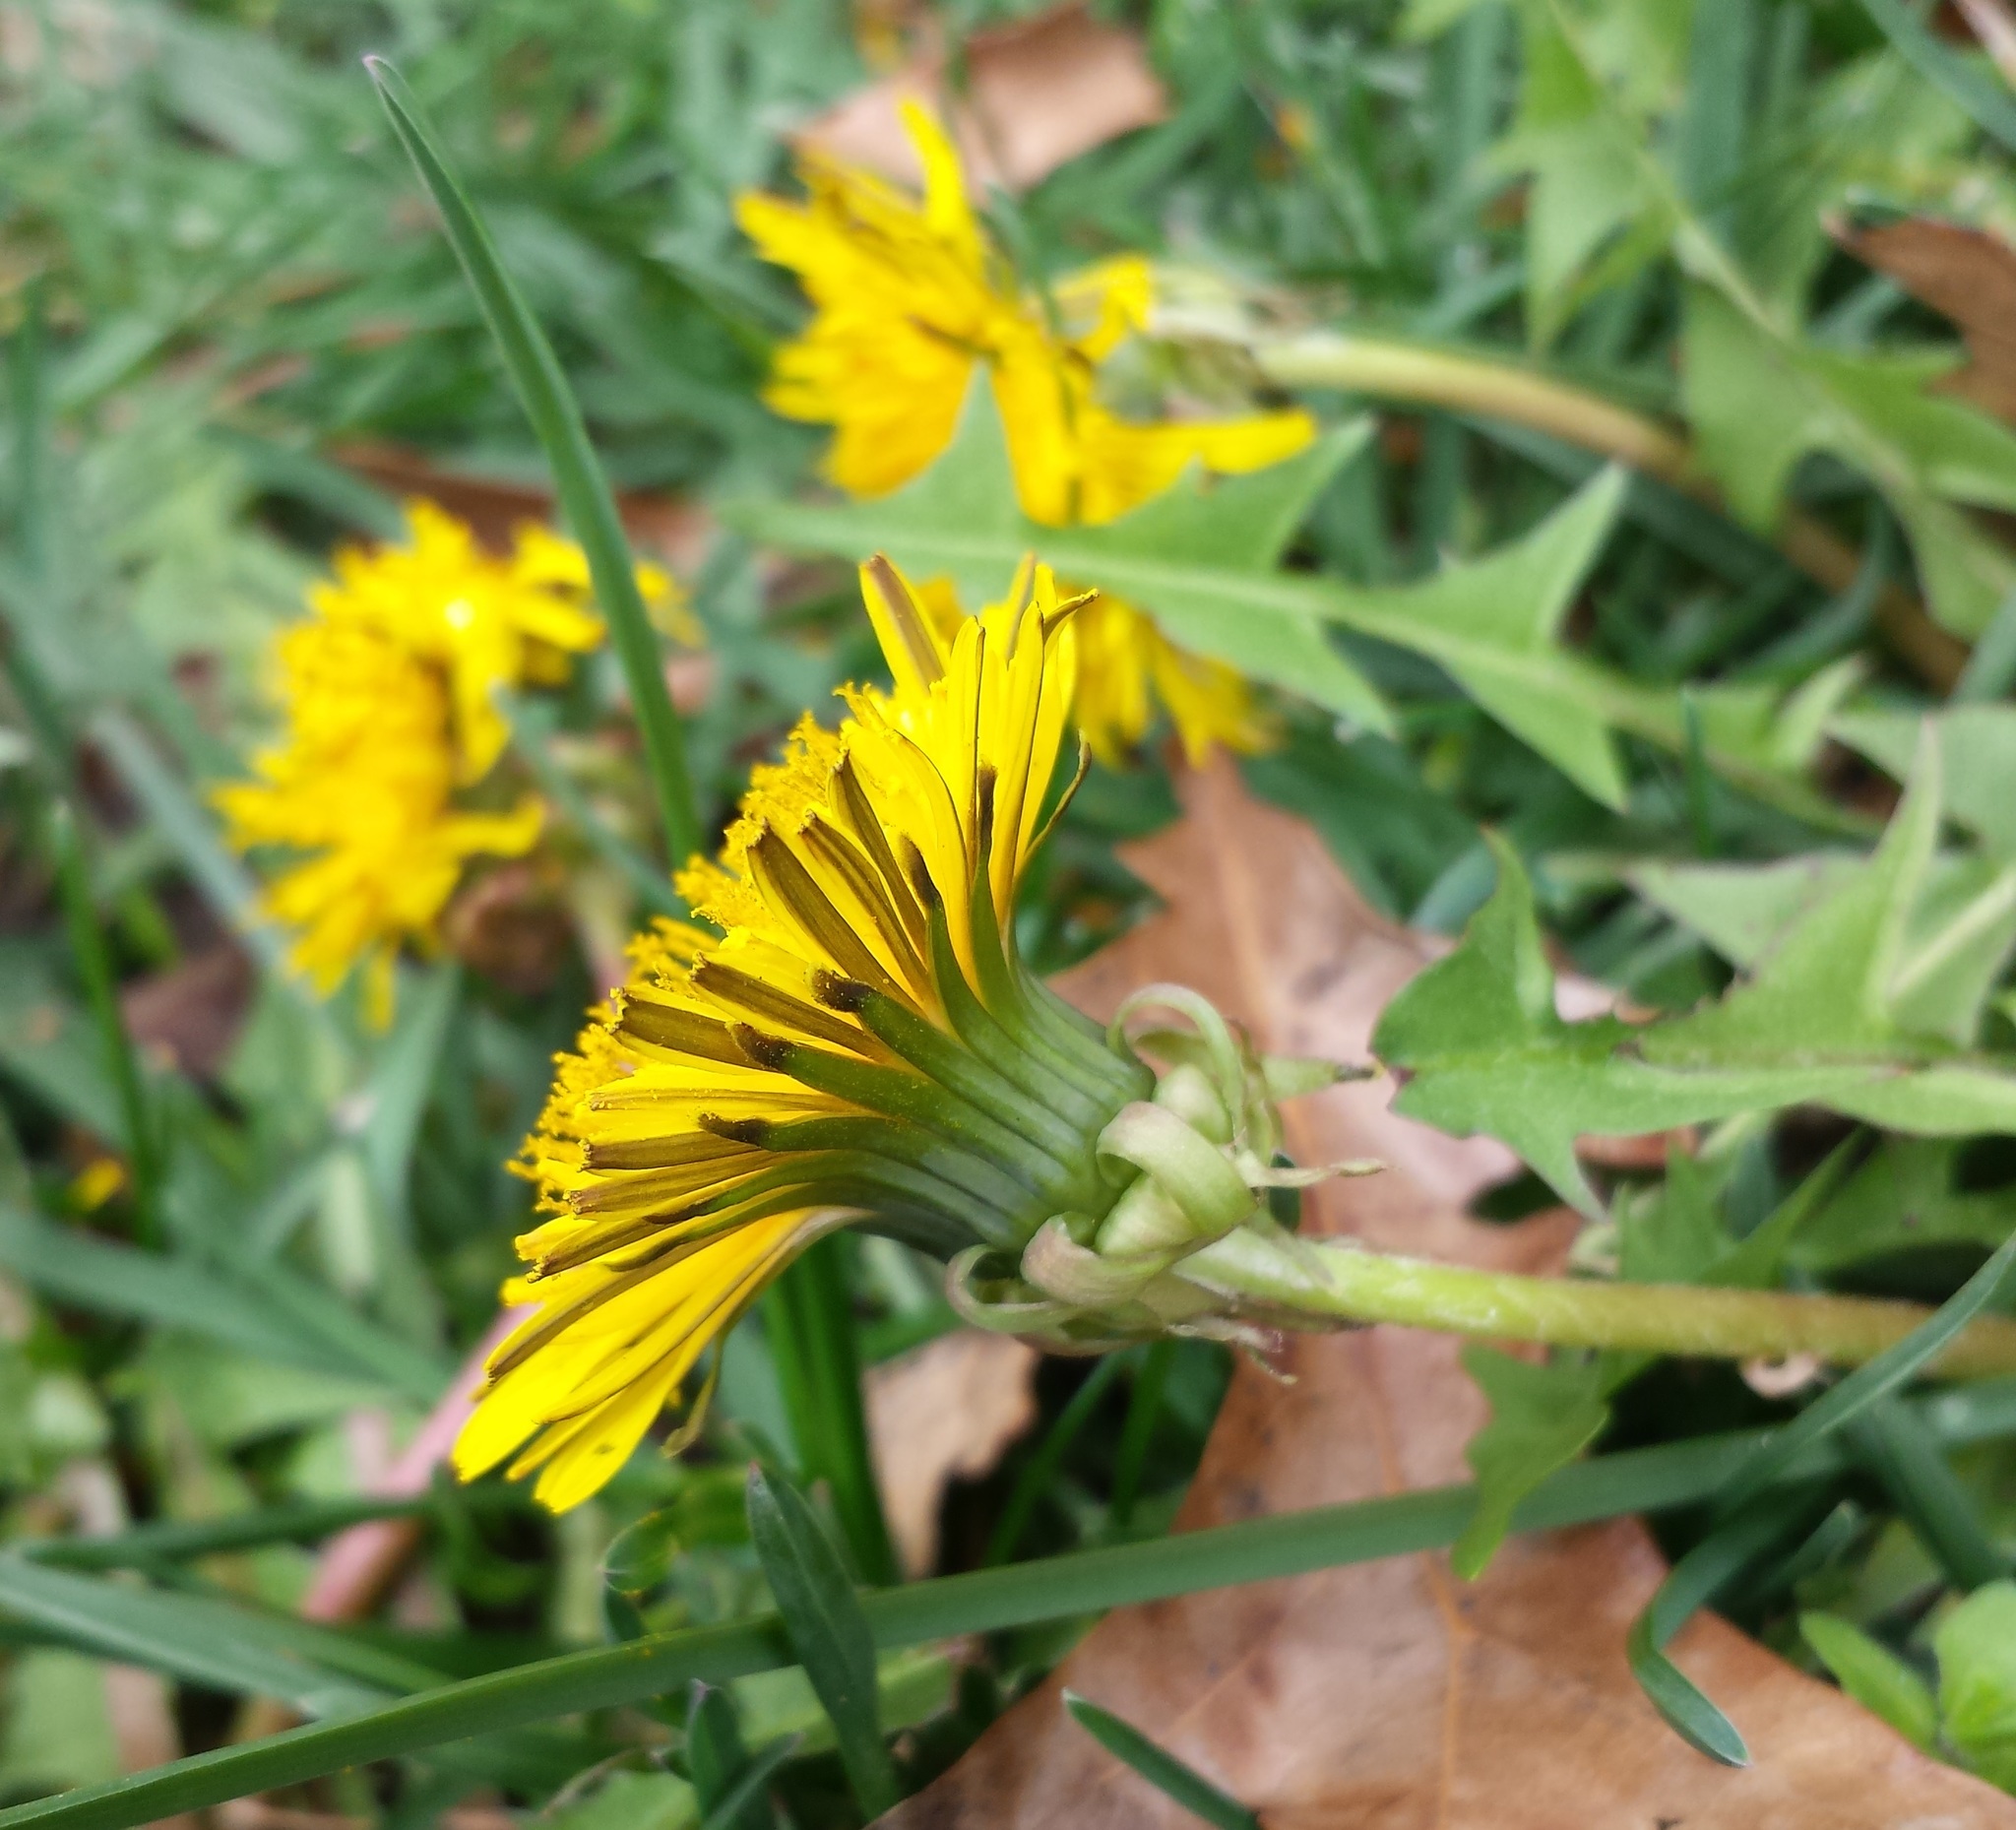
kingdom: Plantae
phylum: Tracheophyta
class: Magnoliopsida
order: Asterales
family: Asteraceae
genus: Taraxacum
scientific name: Taraxacum officinale
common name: Common dandelion
